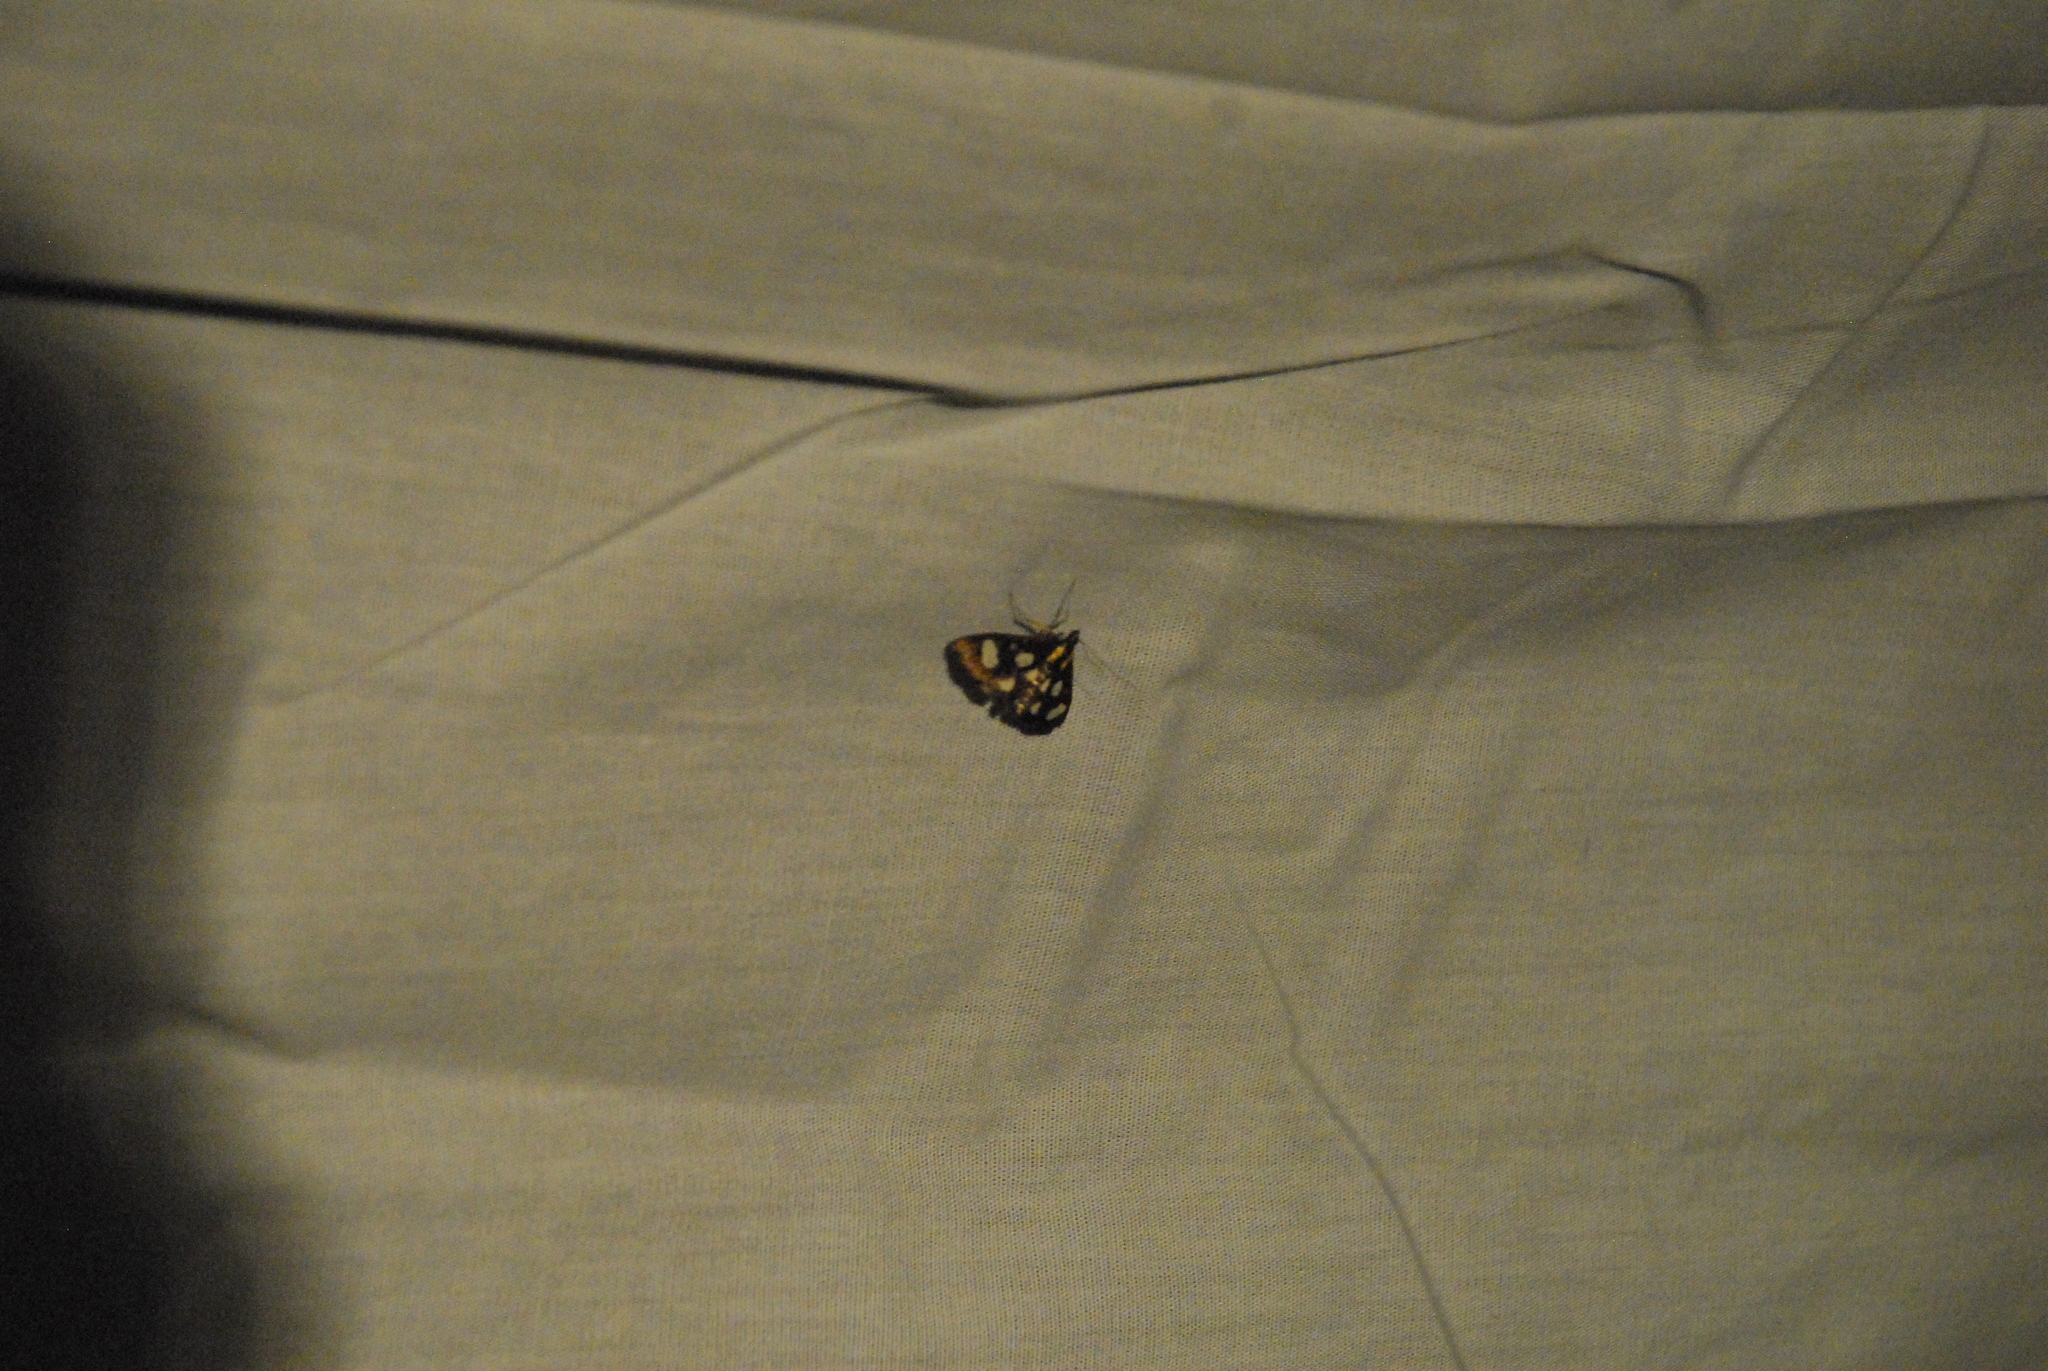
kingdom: Animalia
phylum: Arthropoda
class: Insecta
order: Lepidoptera
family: Crambidae
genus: Anania
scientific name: Anania funebris
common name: White-spotted sable moth
